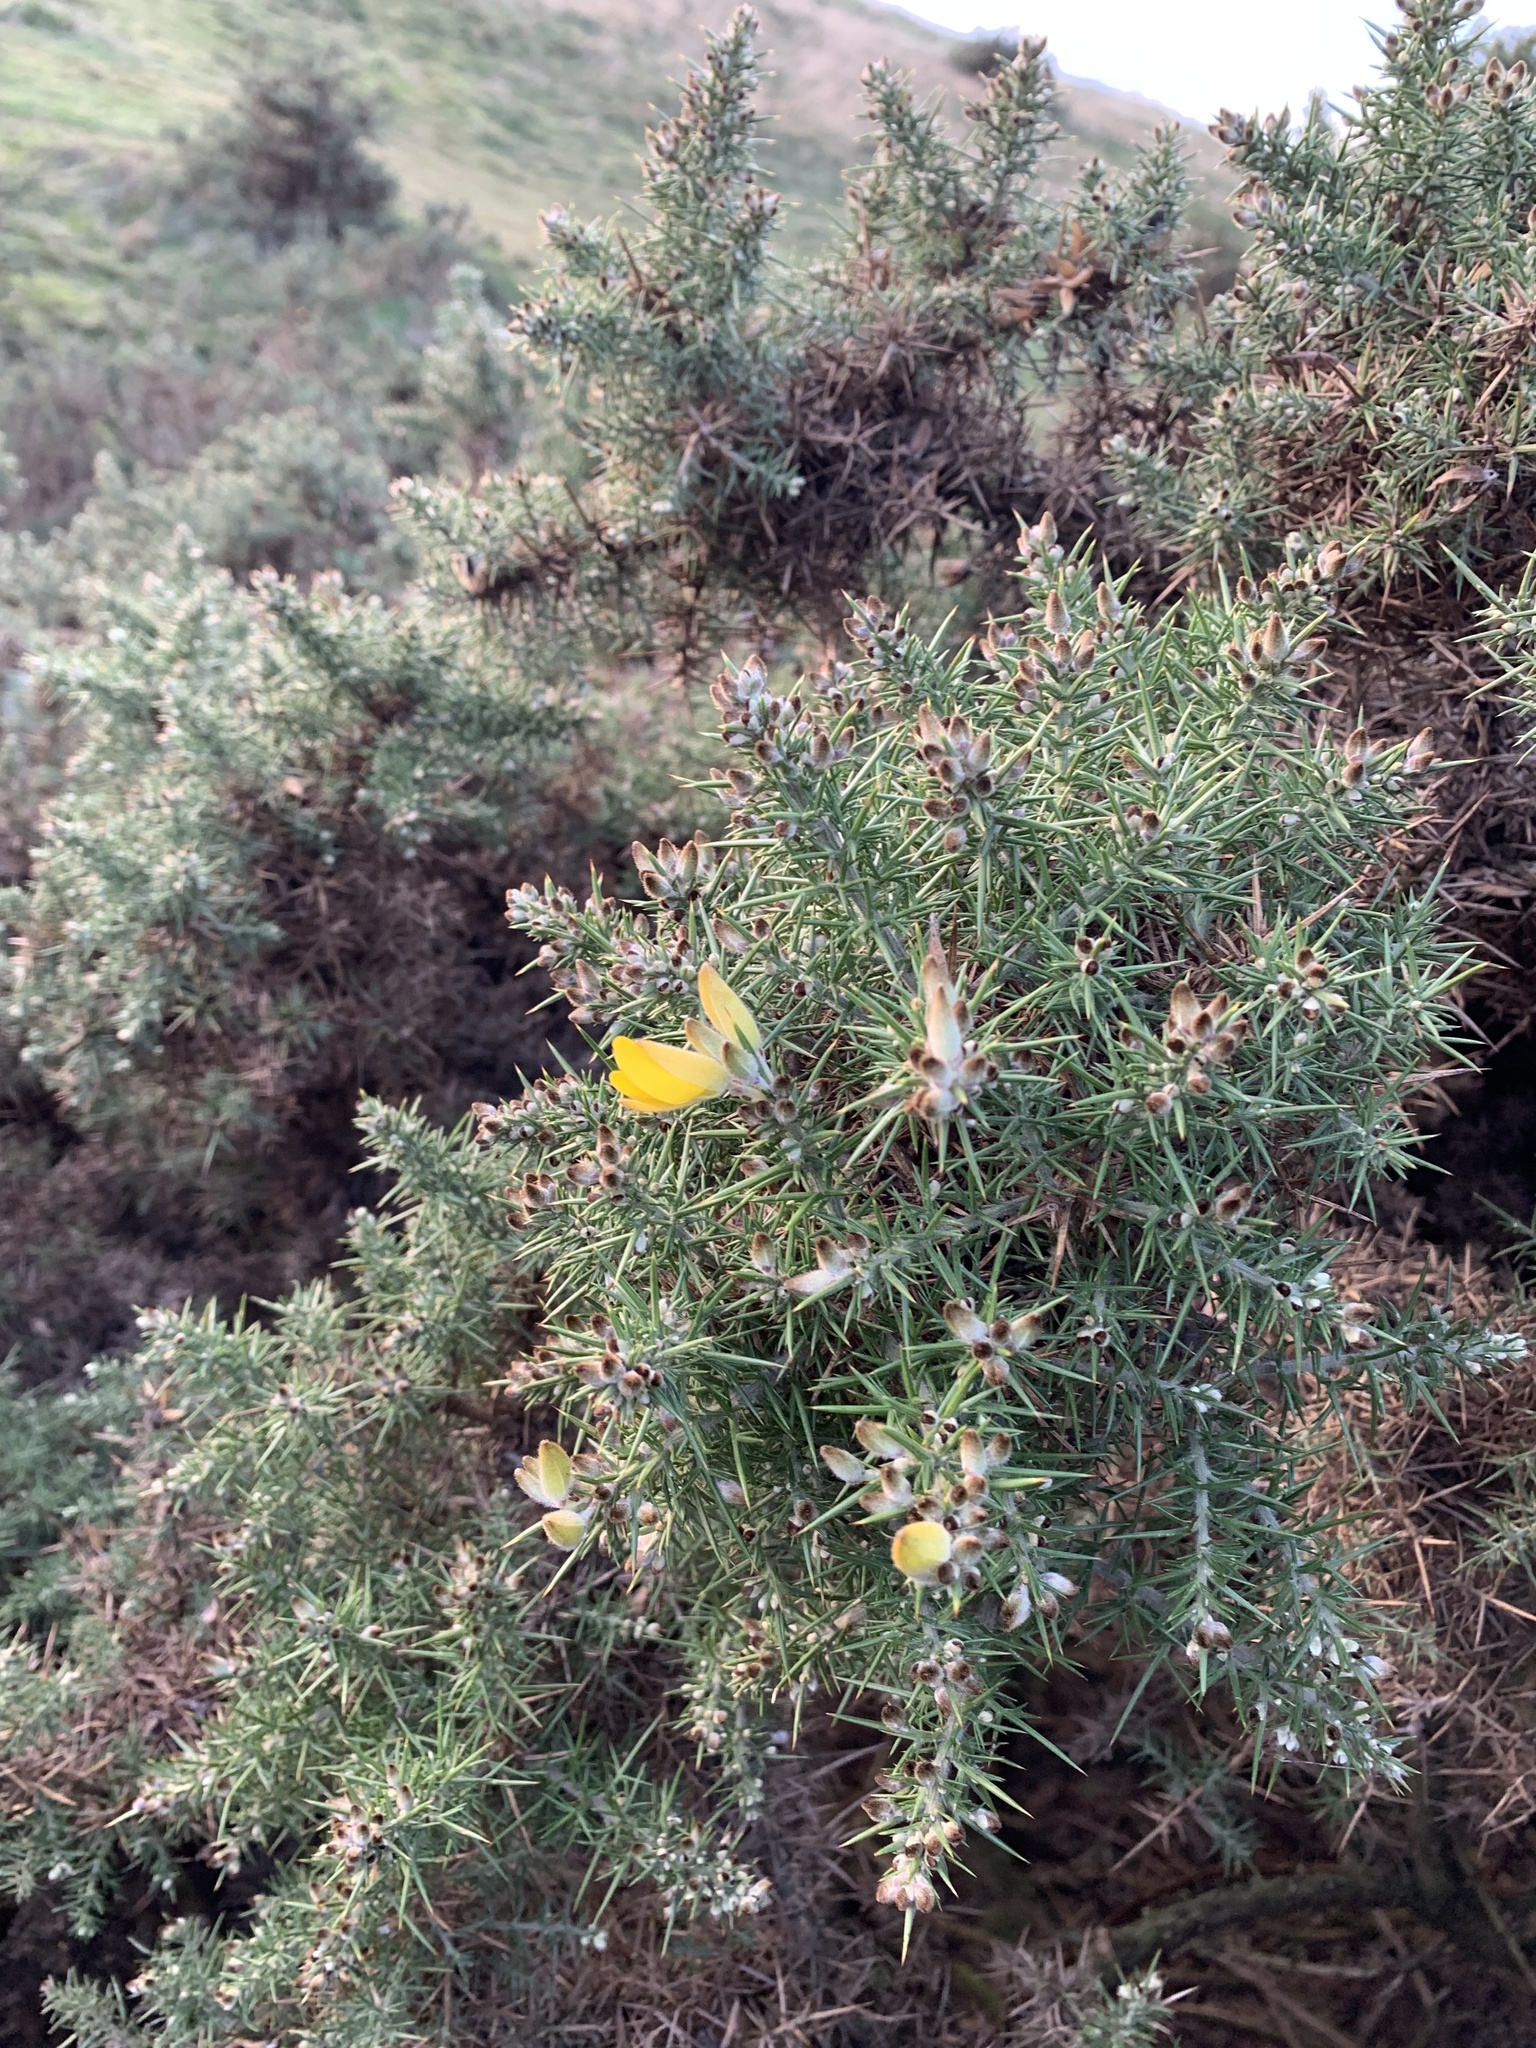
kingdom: Plantae
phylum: Tracheophyta
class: Magnoliopsida
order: Fabales
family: Fabaceae
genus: Ulex
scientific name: Ulex europaeus
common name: Common gorse
